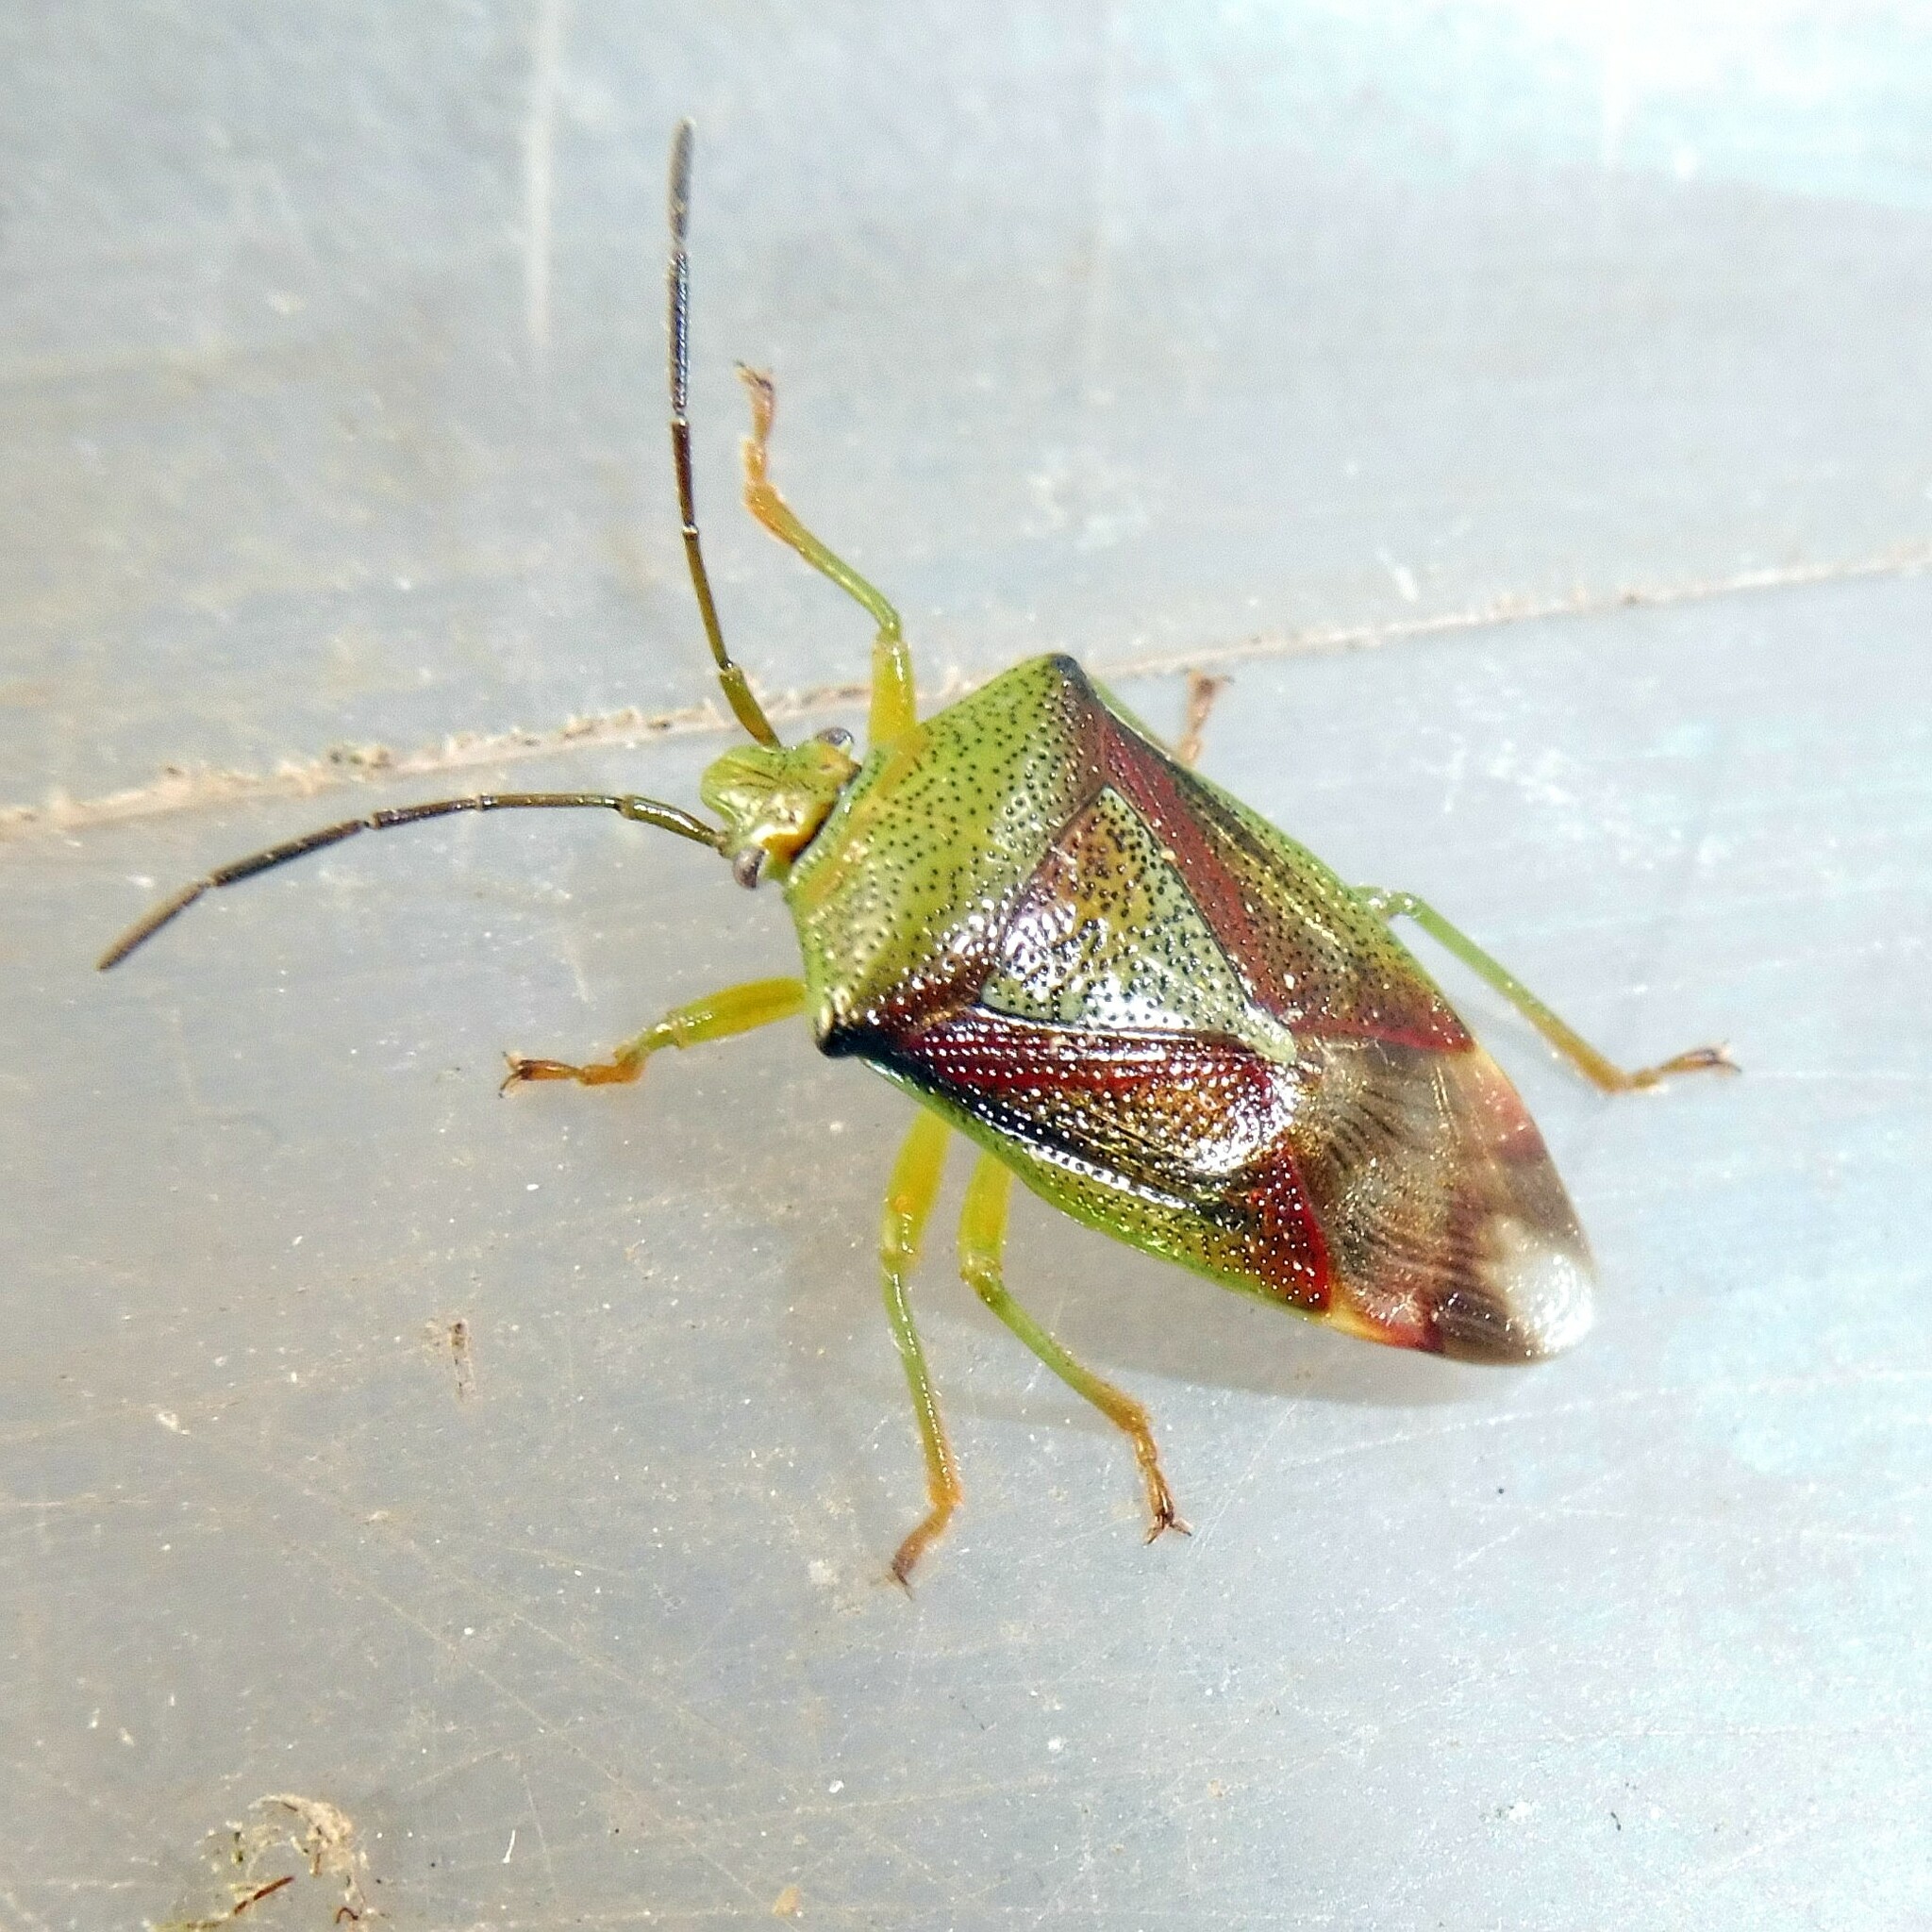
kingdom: Animalia
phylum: Arthropoda
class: Insecta
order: Hemiptera
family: Acanthosomatidae
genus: Elasmostethus
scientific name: Elasmostethus interstinctus
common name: Birch shieldbug
